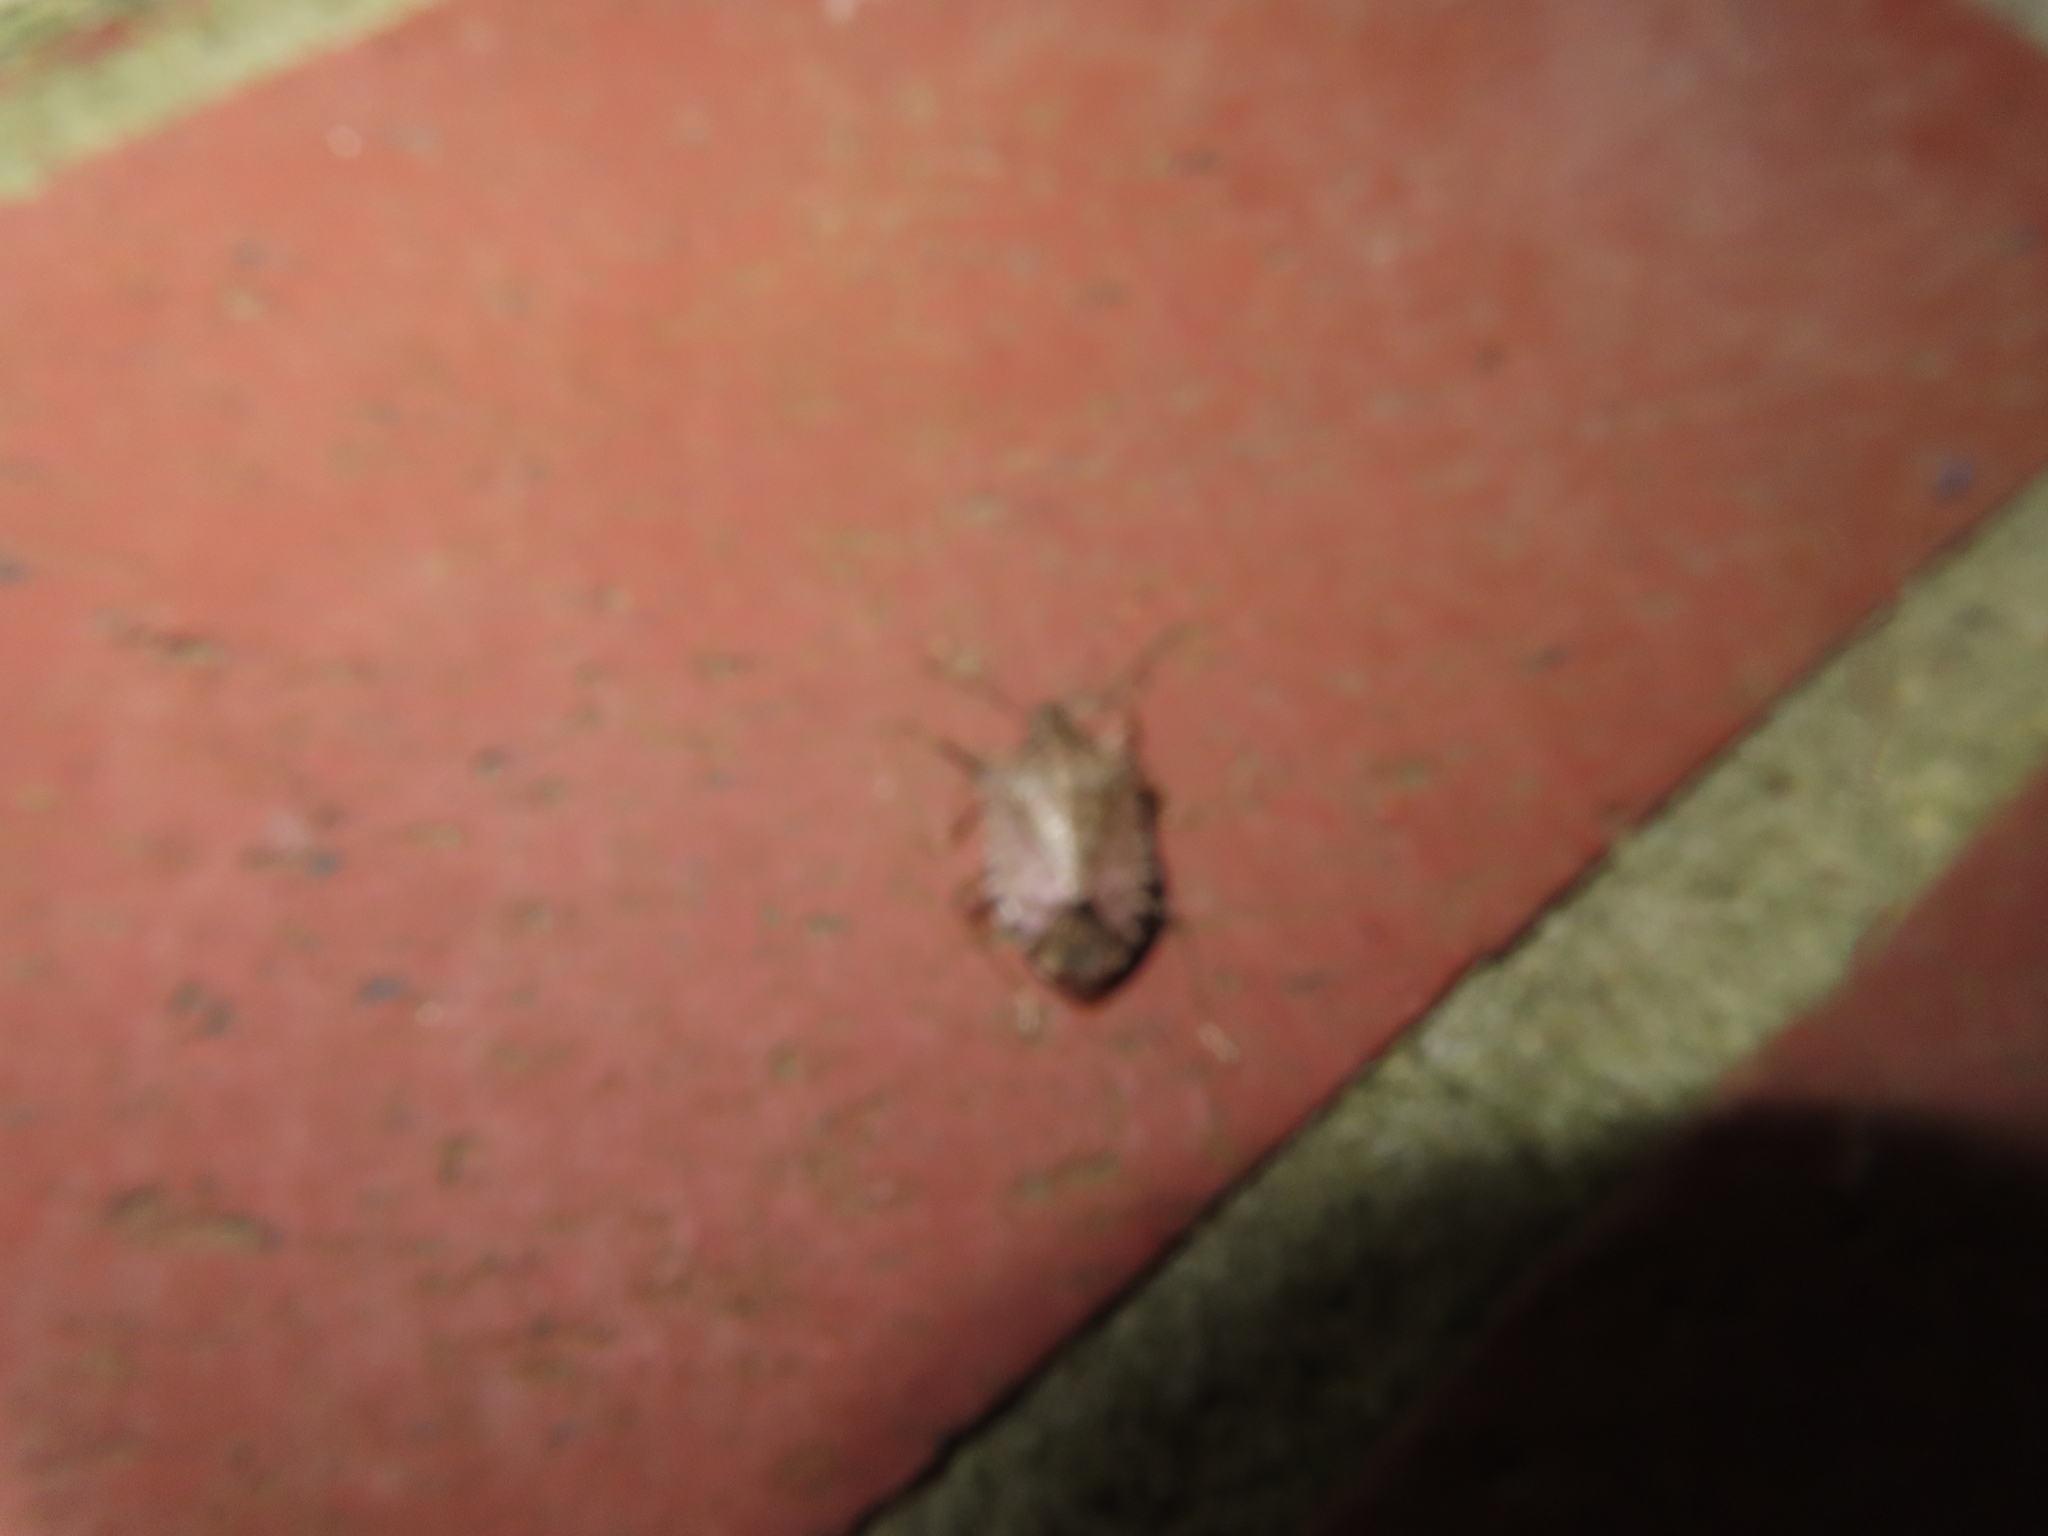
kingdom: Animalia
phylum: Arthropoda
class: Insecta
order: Hemiptera
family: Pentatomidae
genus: Halyomorpha
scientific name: Halyomorpha halys
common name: Brown marmorated stink bug
